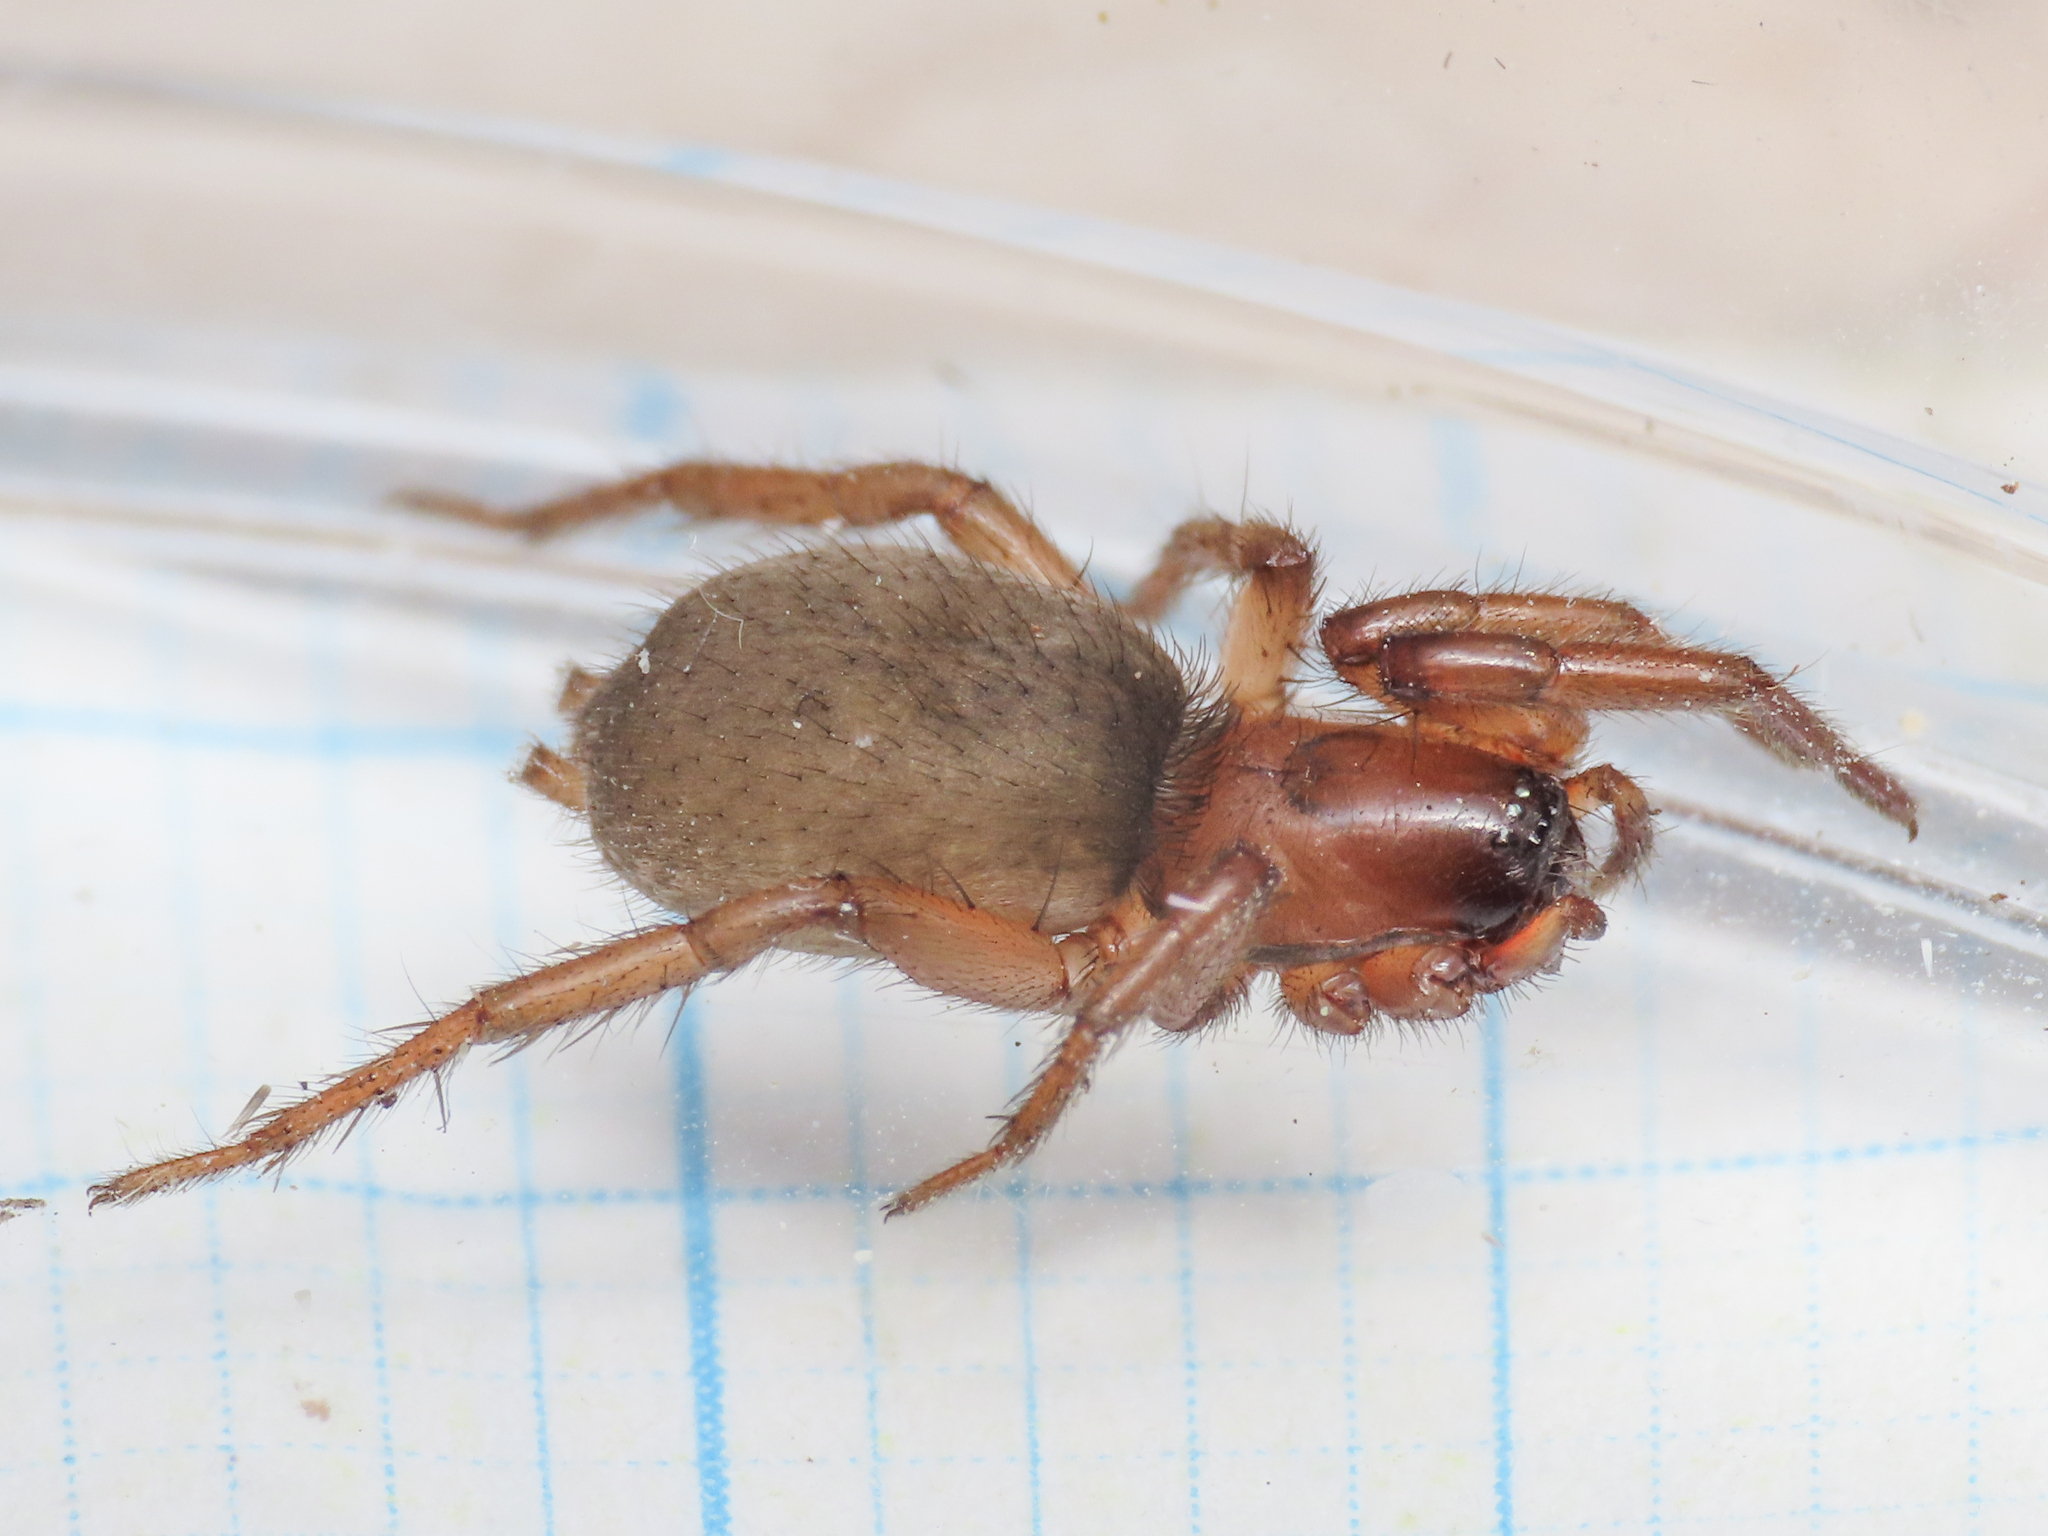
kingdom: Animalia
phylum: Arthropoda
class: Arachnida
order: Araneae
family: Gnaphosidae
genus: Gnaphosa
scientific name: Gnaphosa alacris
